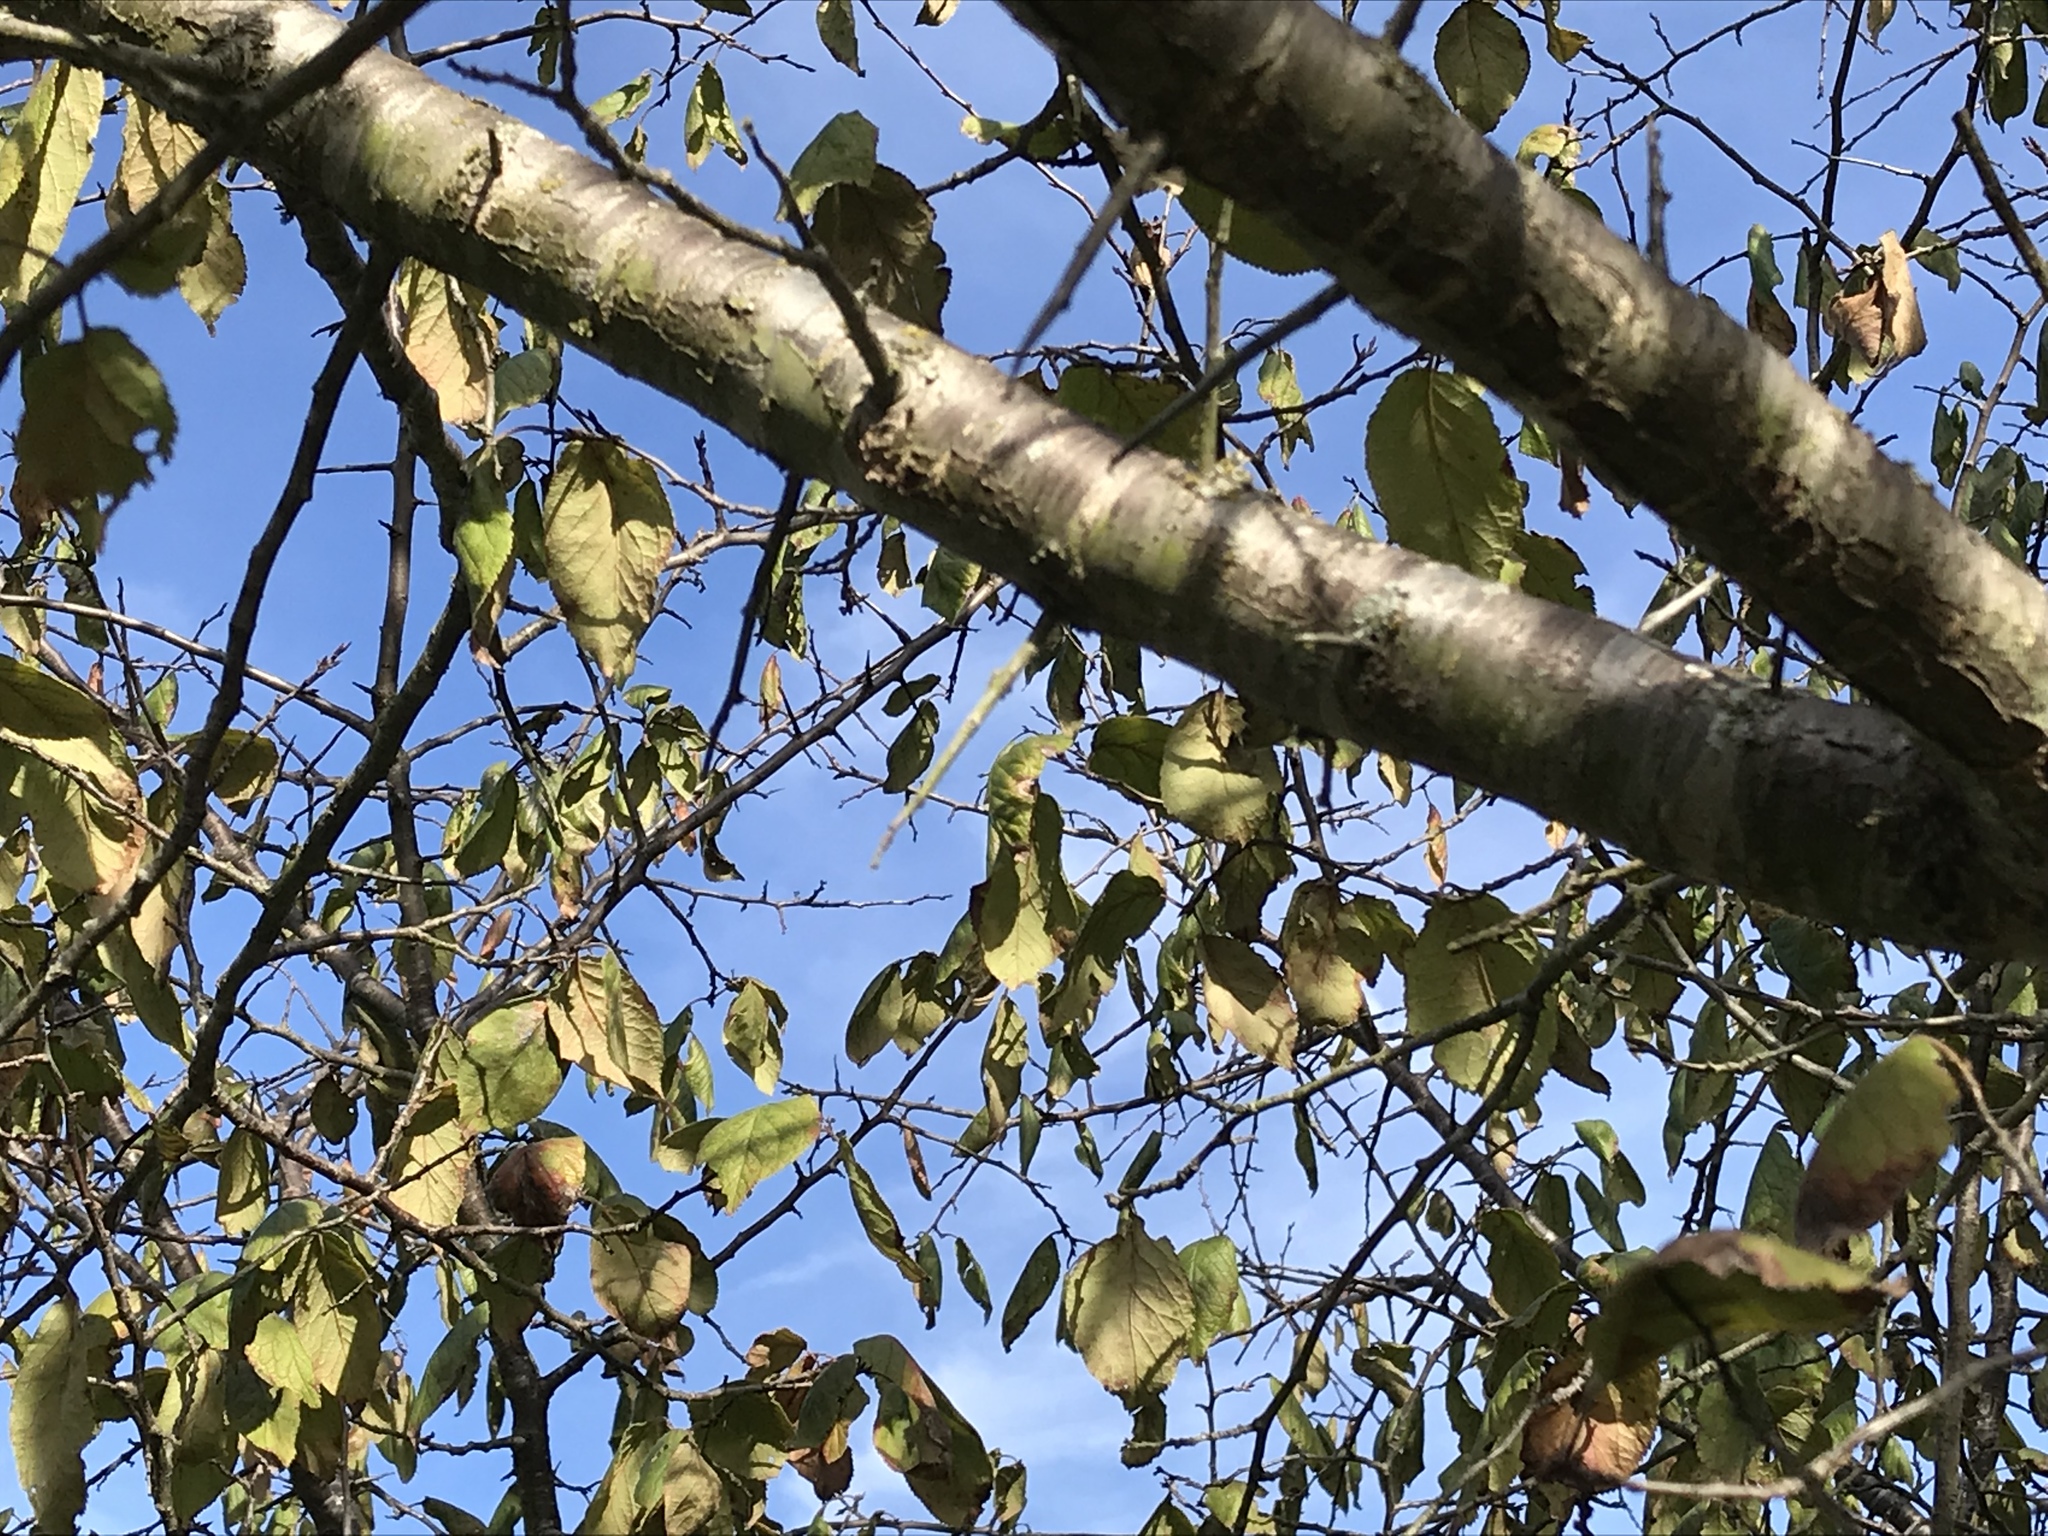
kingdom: Plantae
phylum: Tracheophyta
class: Magnoliopsida
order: Rosales
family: Rosaceae
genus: Prunus
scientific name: Prunus mexicana
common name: Mexican plum
